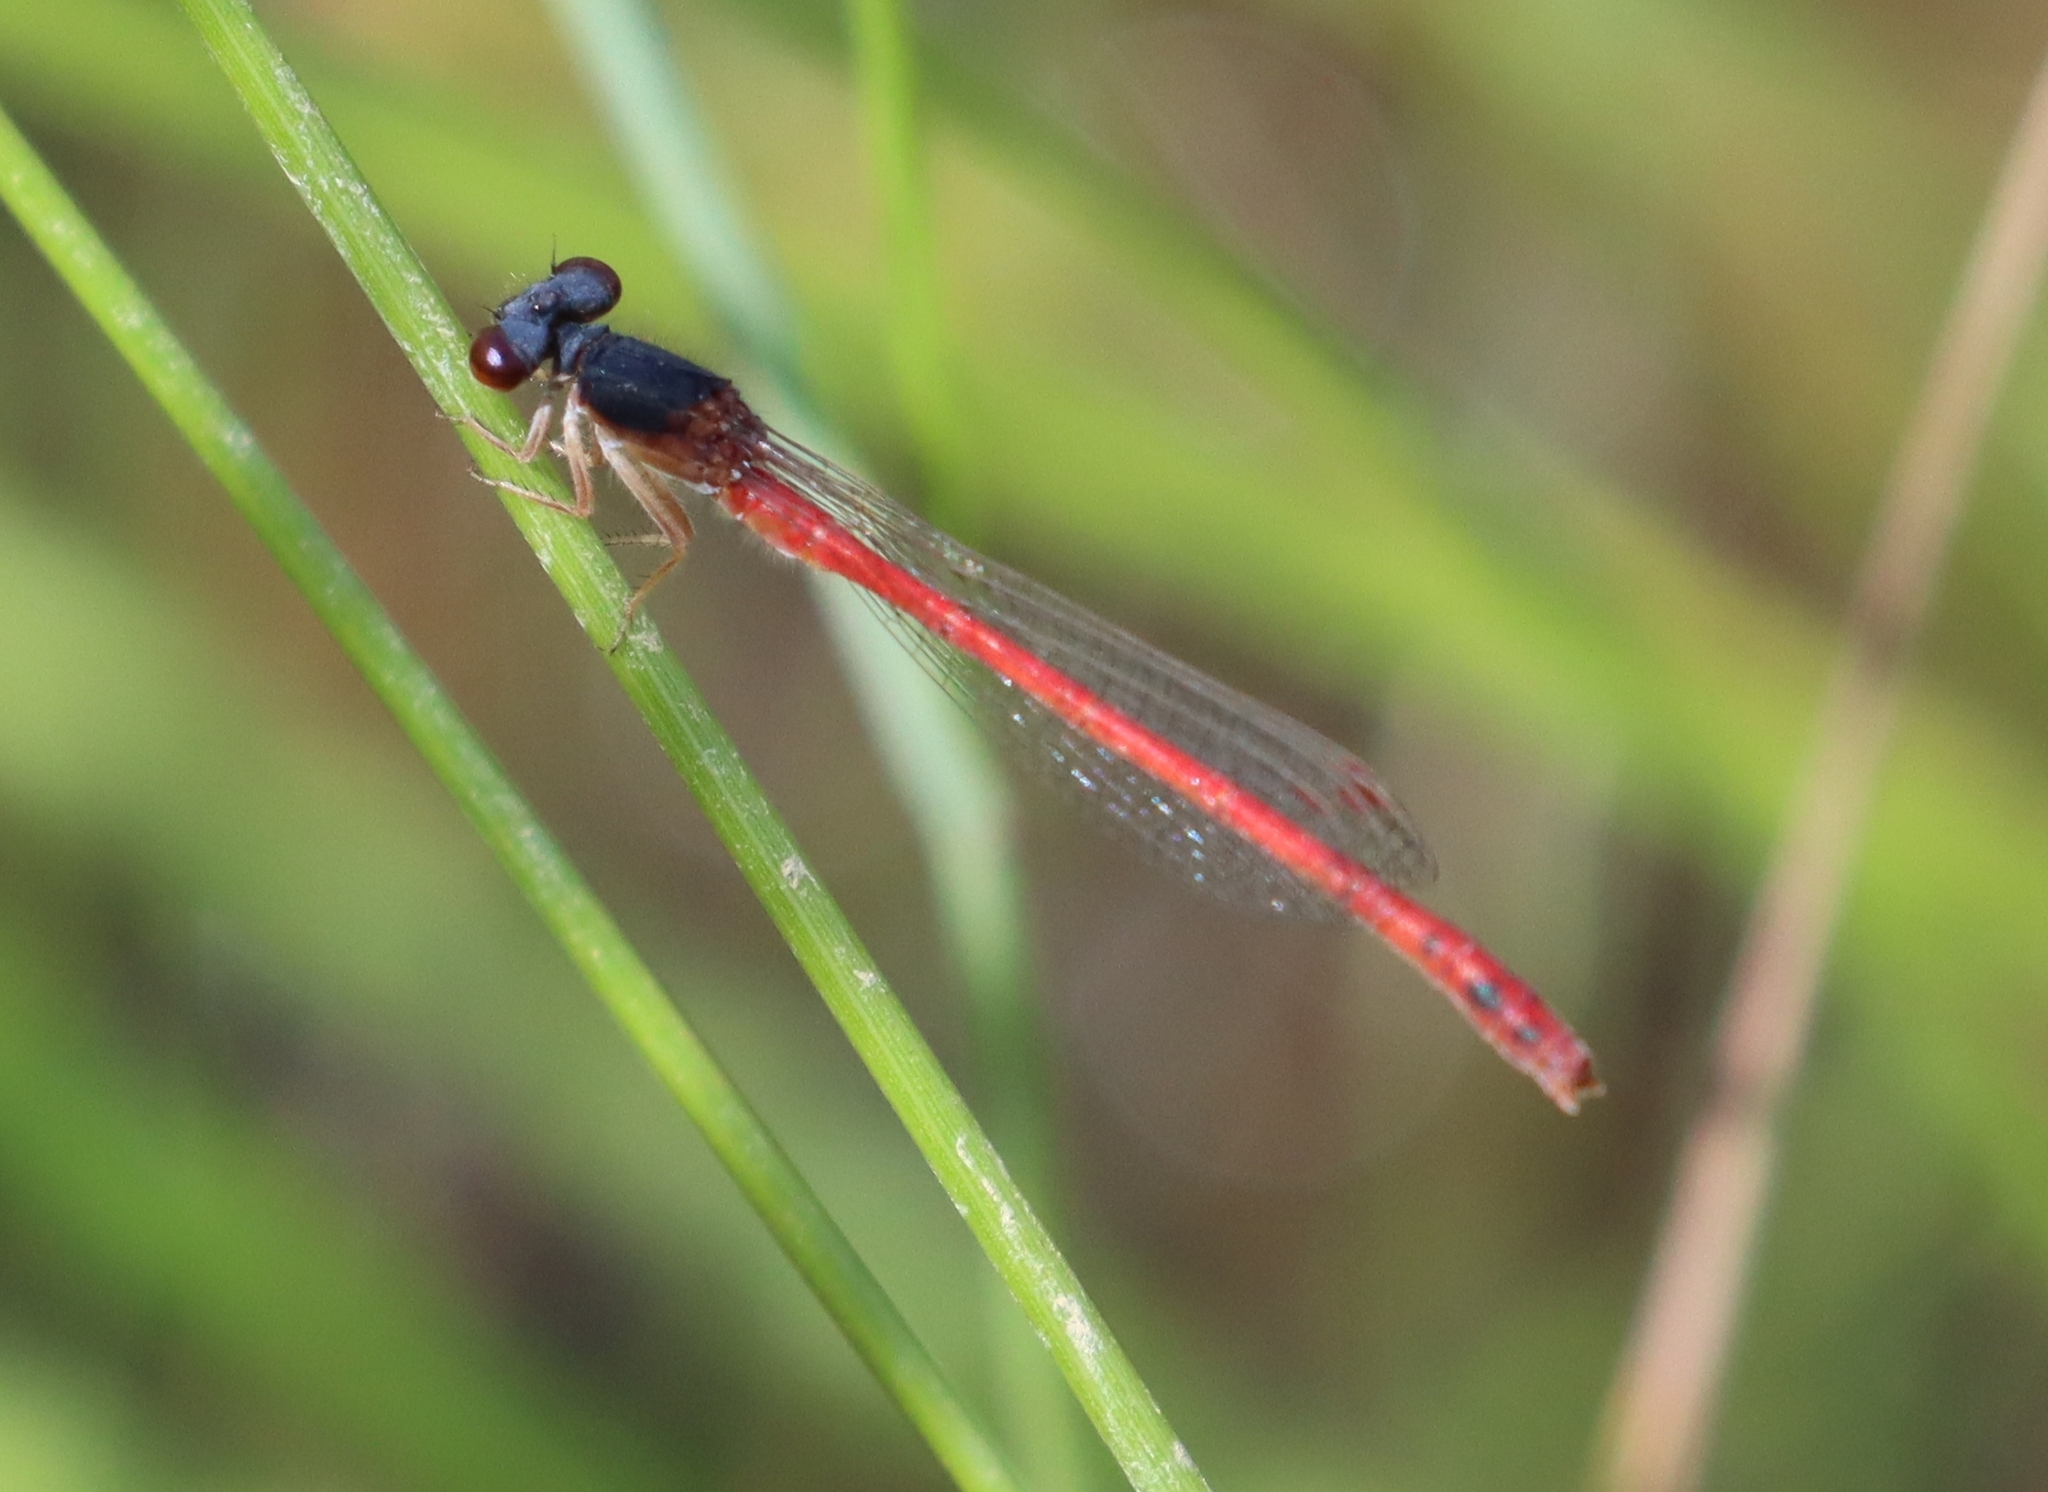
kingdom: Animalia
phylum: Arthropoda
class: Insecta
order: Odonata
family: Coenagrionidae
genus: Amphiagrion
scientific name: Amphiagrion saucium
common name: Eastern red damsel
